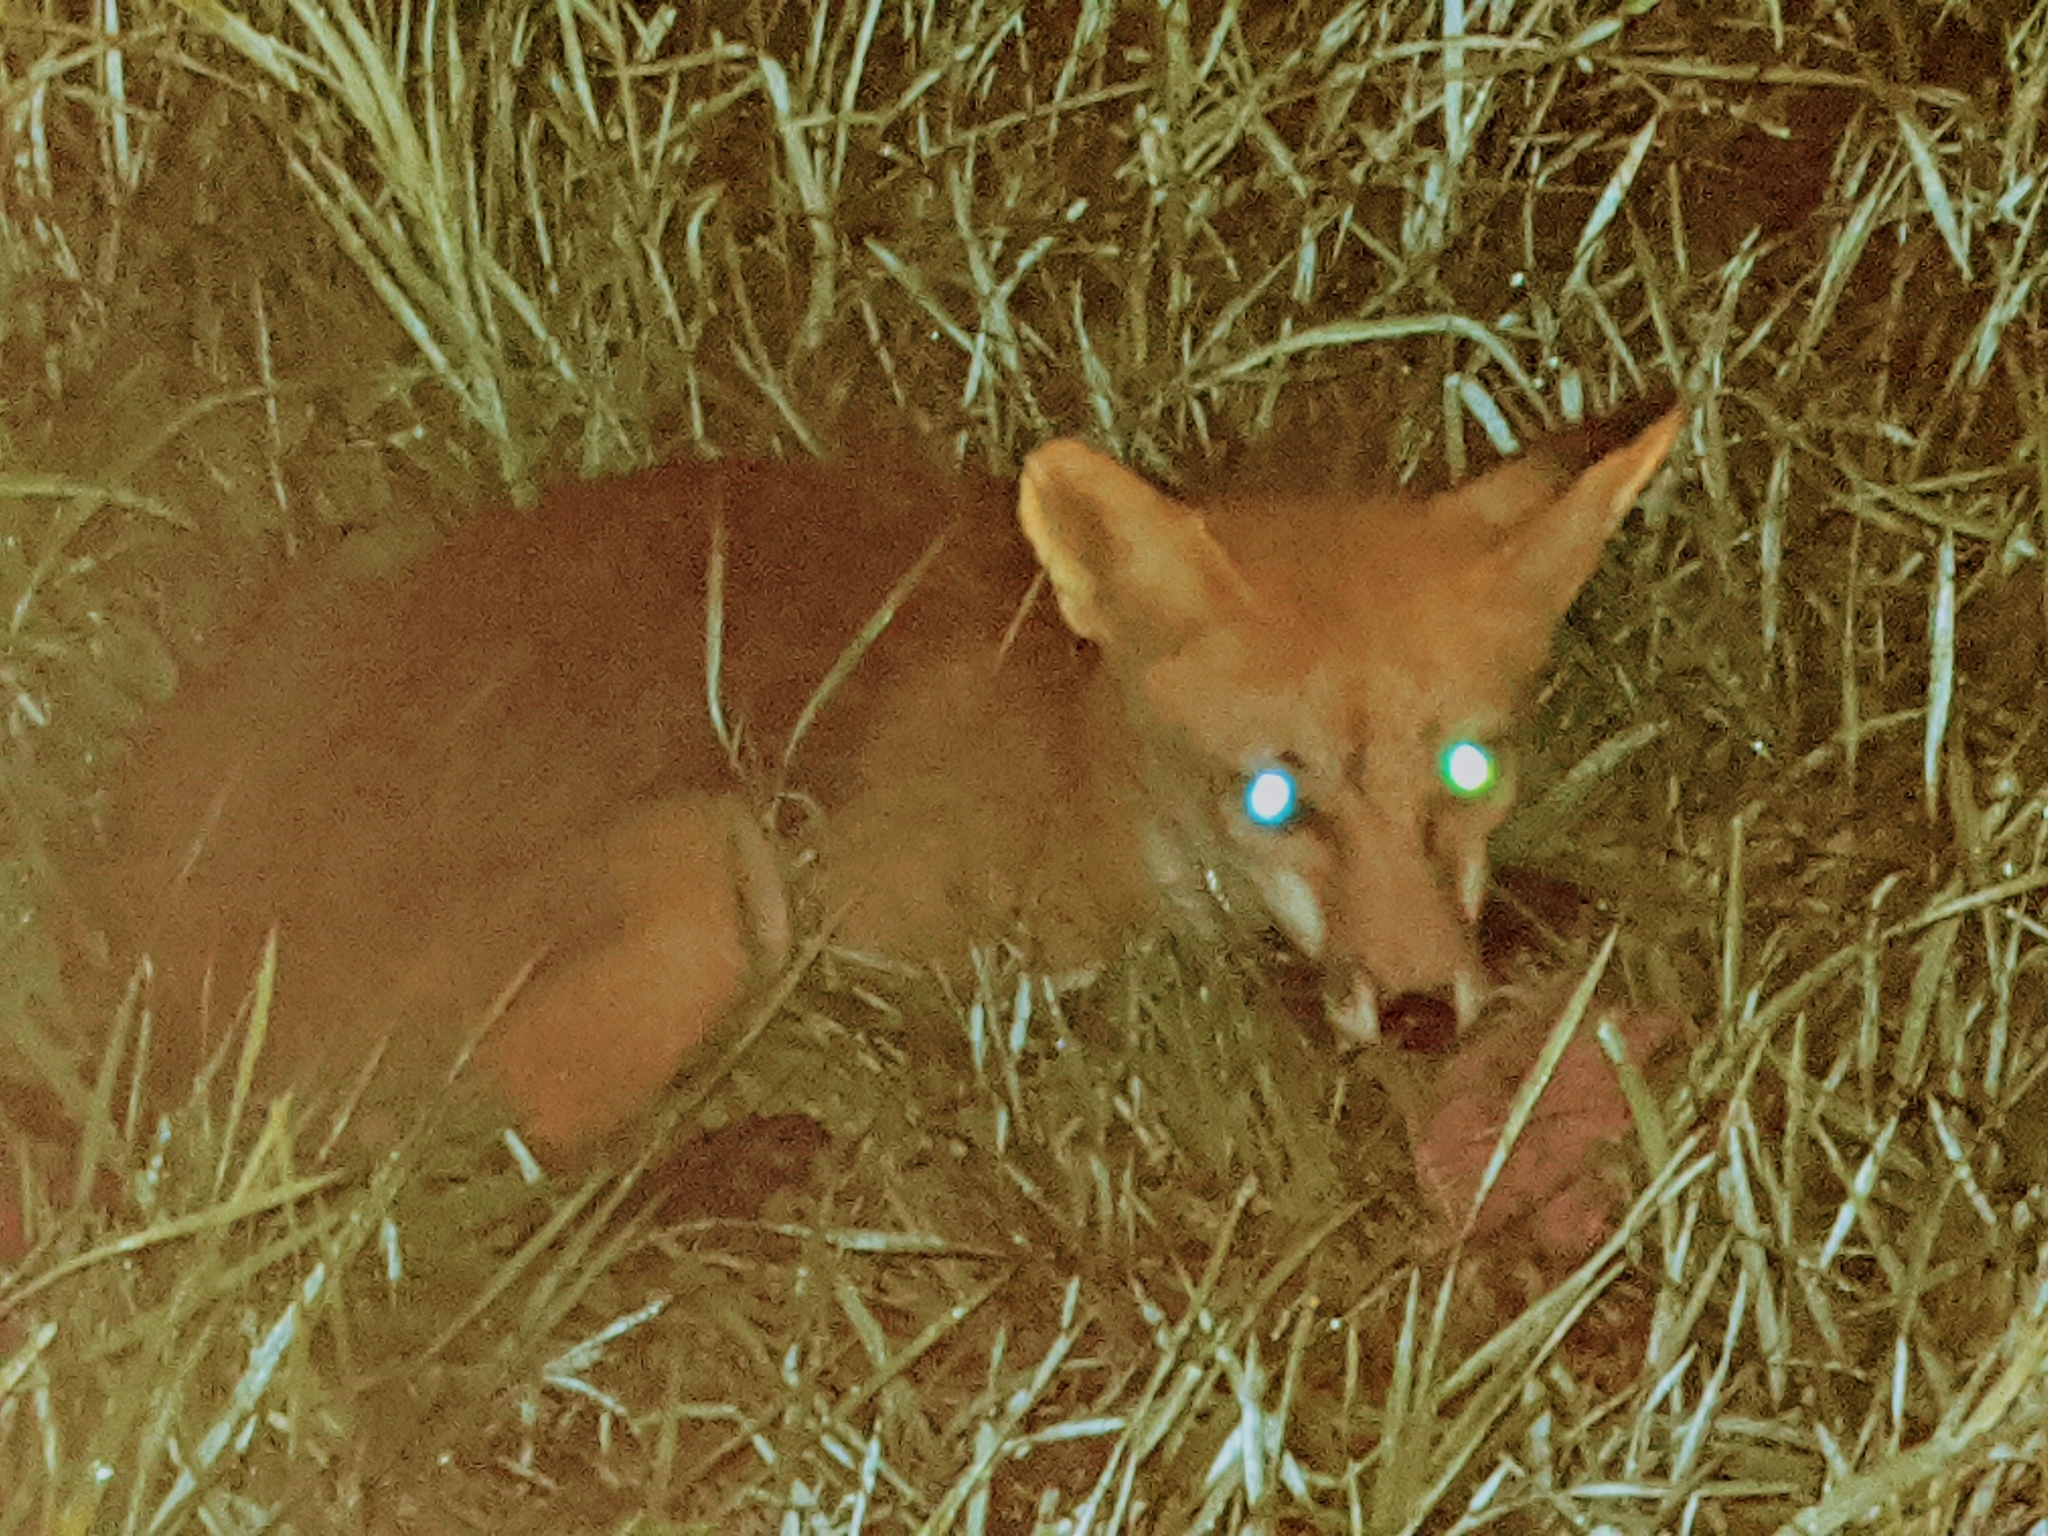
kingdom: Animalia
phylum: Chordata
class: Mammalia
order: Carnivora
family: Canidae
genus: Vulpes
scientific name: Vulpes vulpes
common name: Red fox
